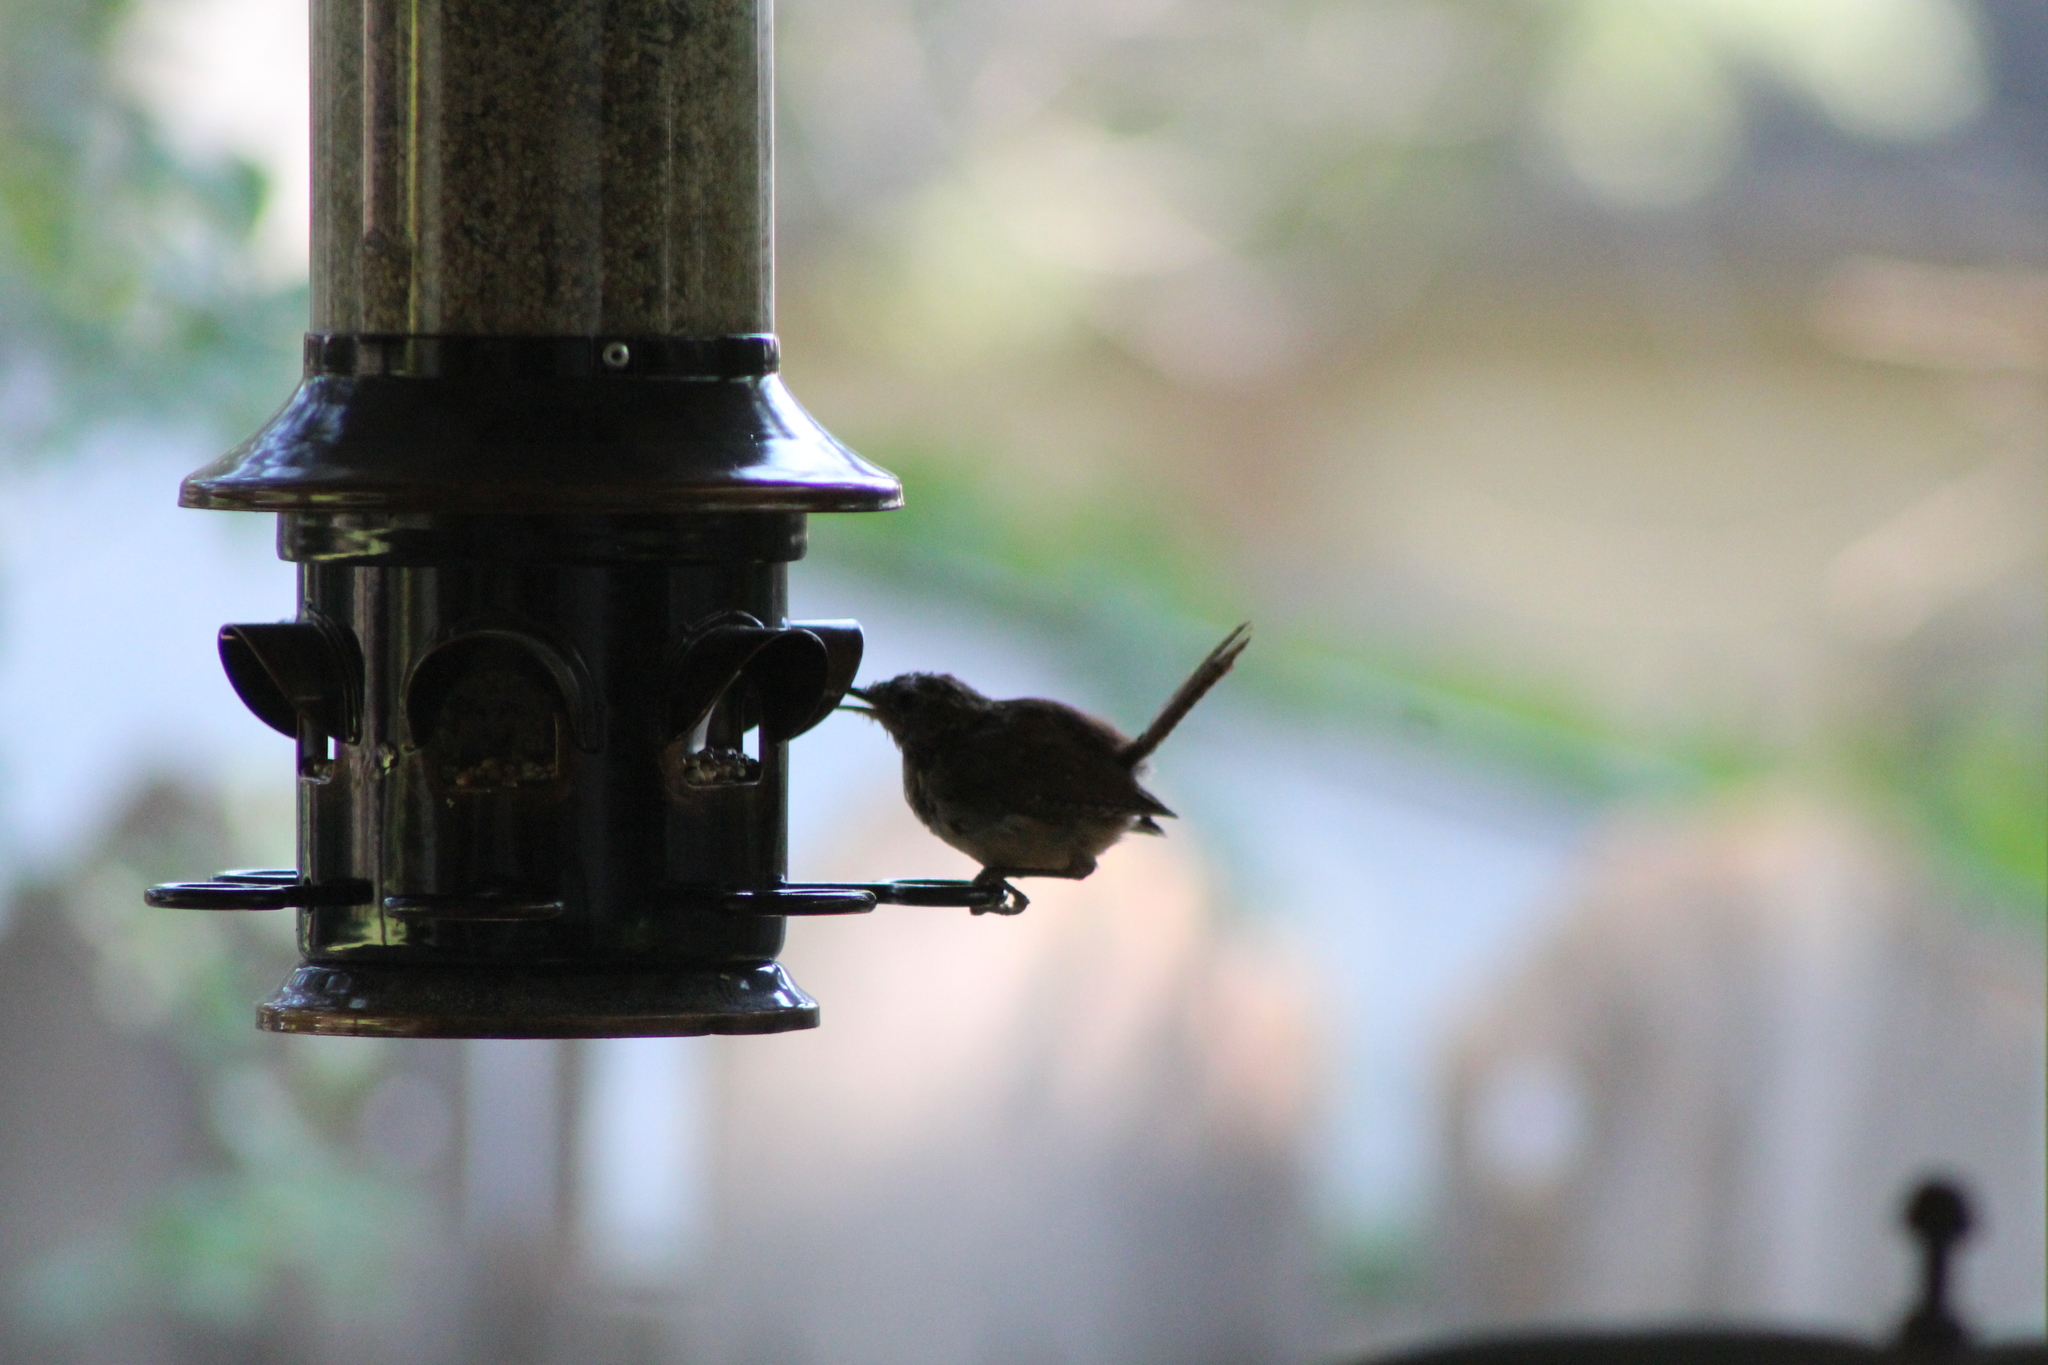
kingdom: Animalia
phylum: Chordata
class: Aves
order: Passeriformes
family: Troglodytidae
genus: Thryothorus
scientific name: Thryothorus ludovicianus
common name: Carolina wren
